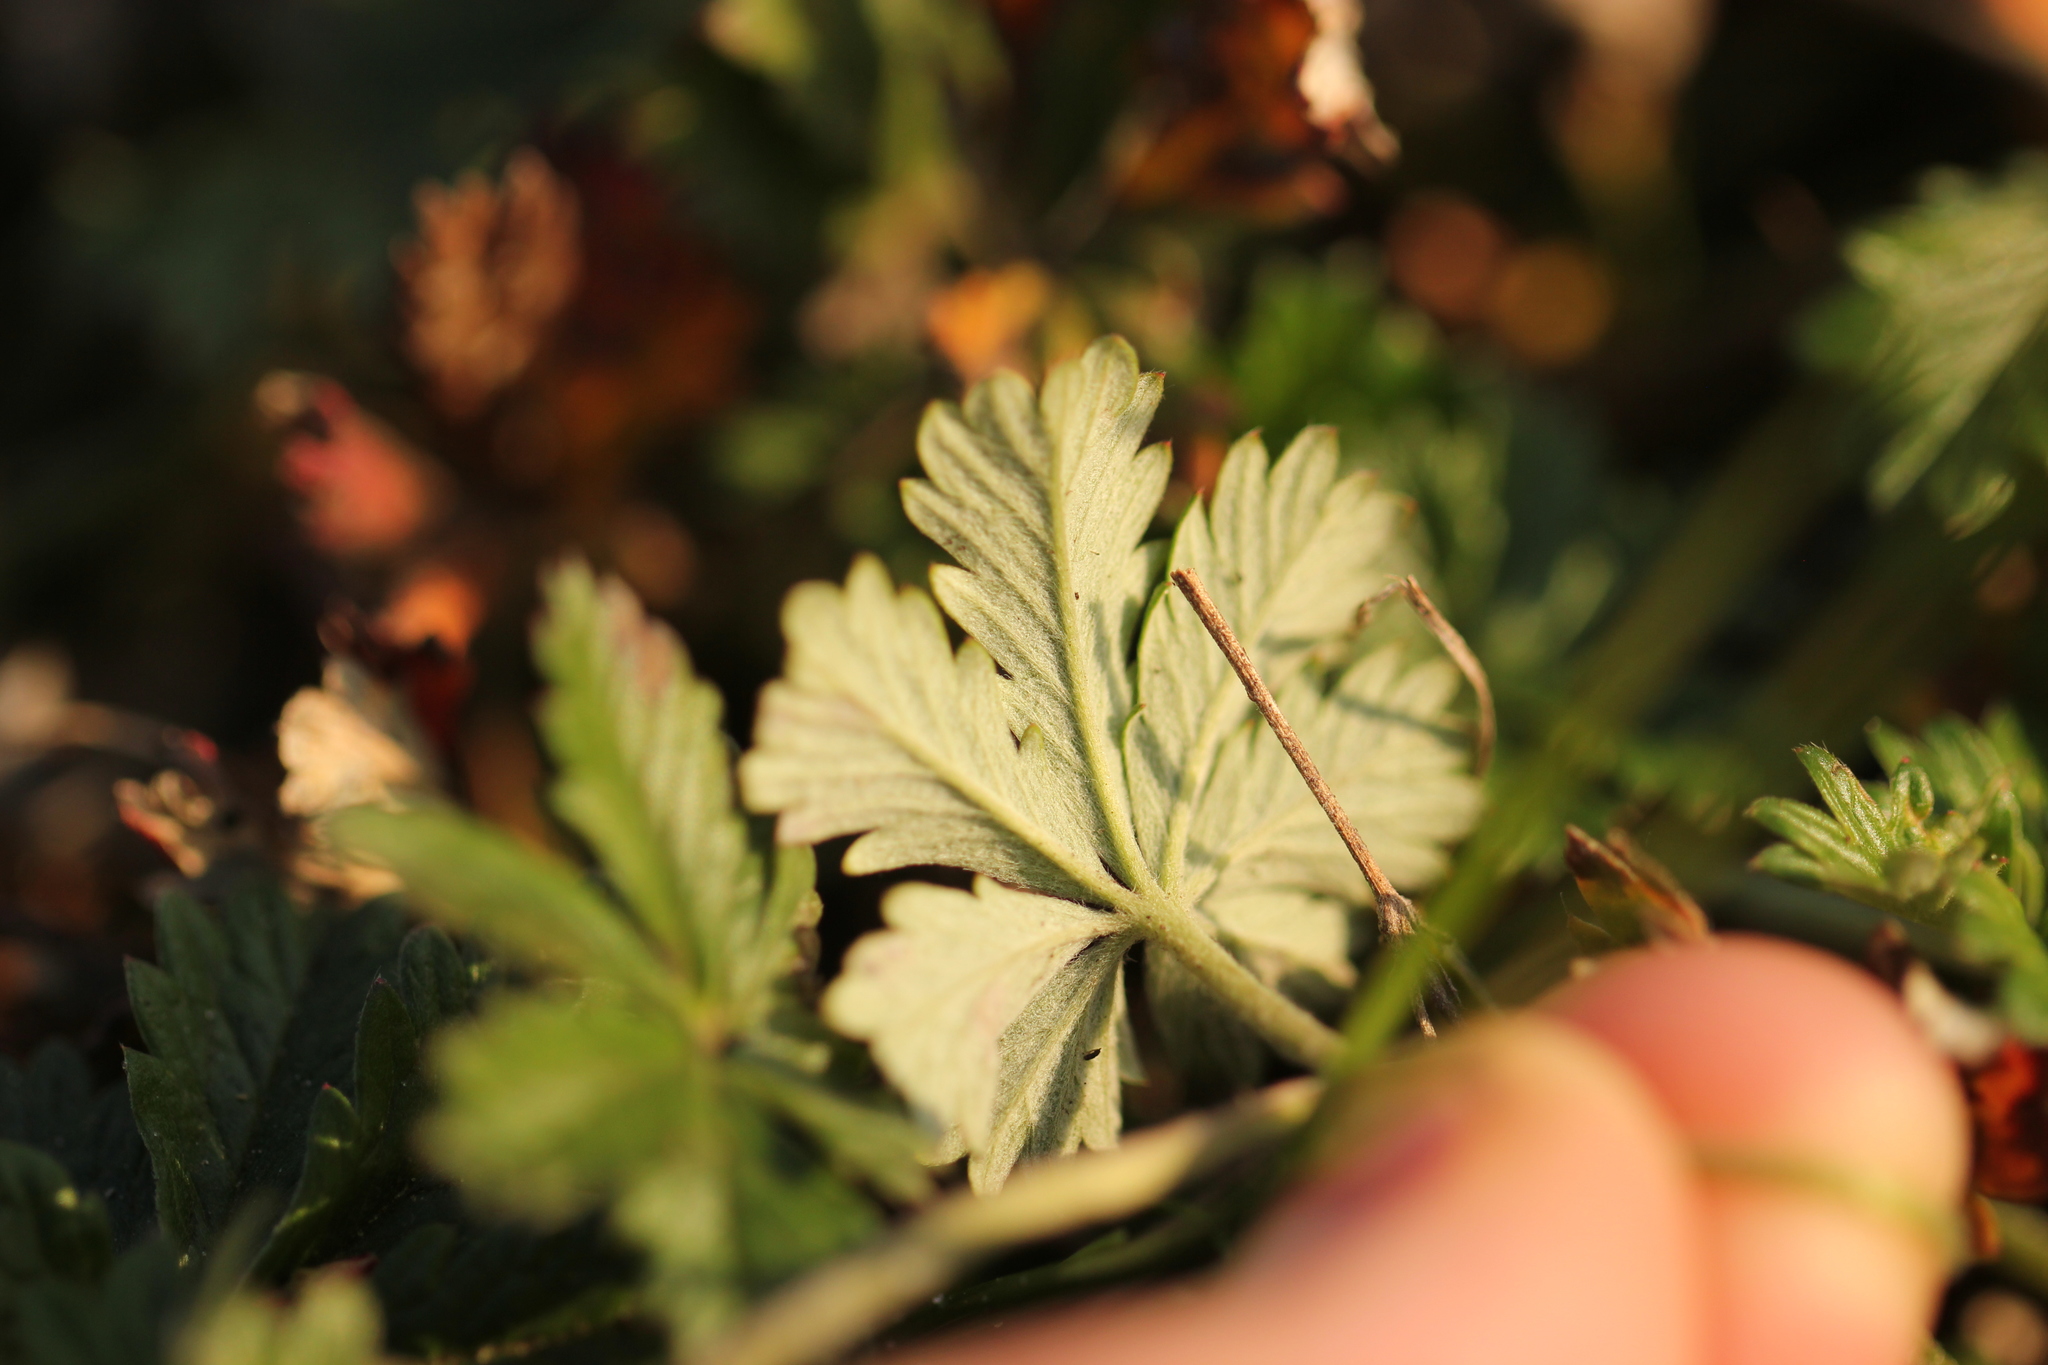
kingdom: Plantae
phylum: Tracheophyta
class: Magnoliopsida
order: Rosales
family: Rosaceae
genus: Potentilla
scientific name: Potentilla argentea
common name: Hoary cinquefoil
